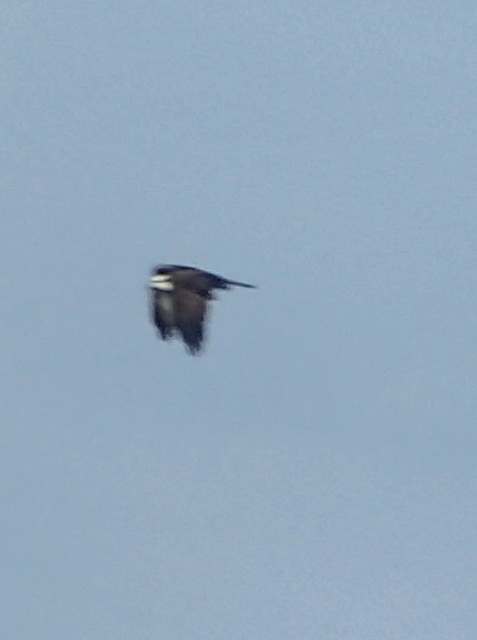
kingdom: Animalia
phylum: Chordata
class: Aves
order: Accipitriformes
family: Pandionidae
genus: Pandion
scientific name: Pandion haliaetus
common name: Osprey
